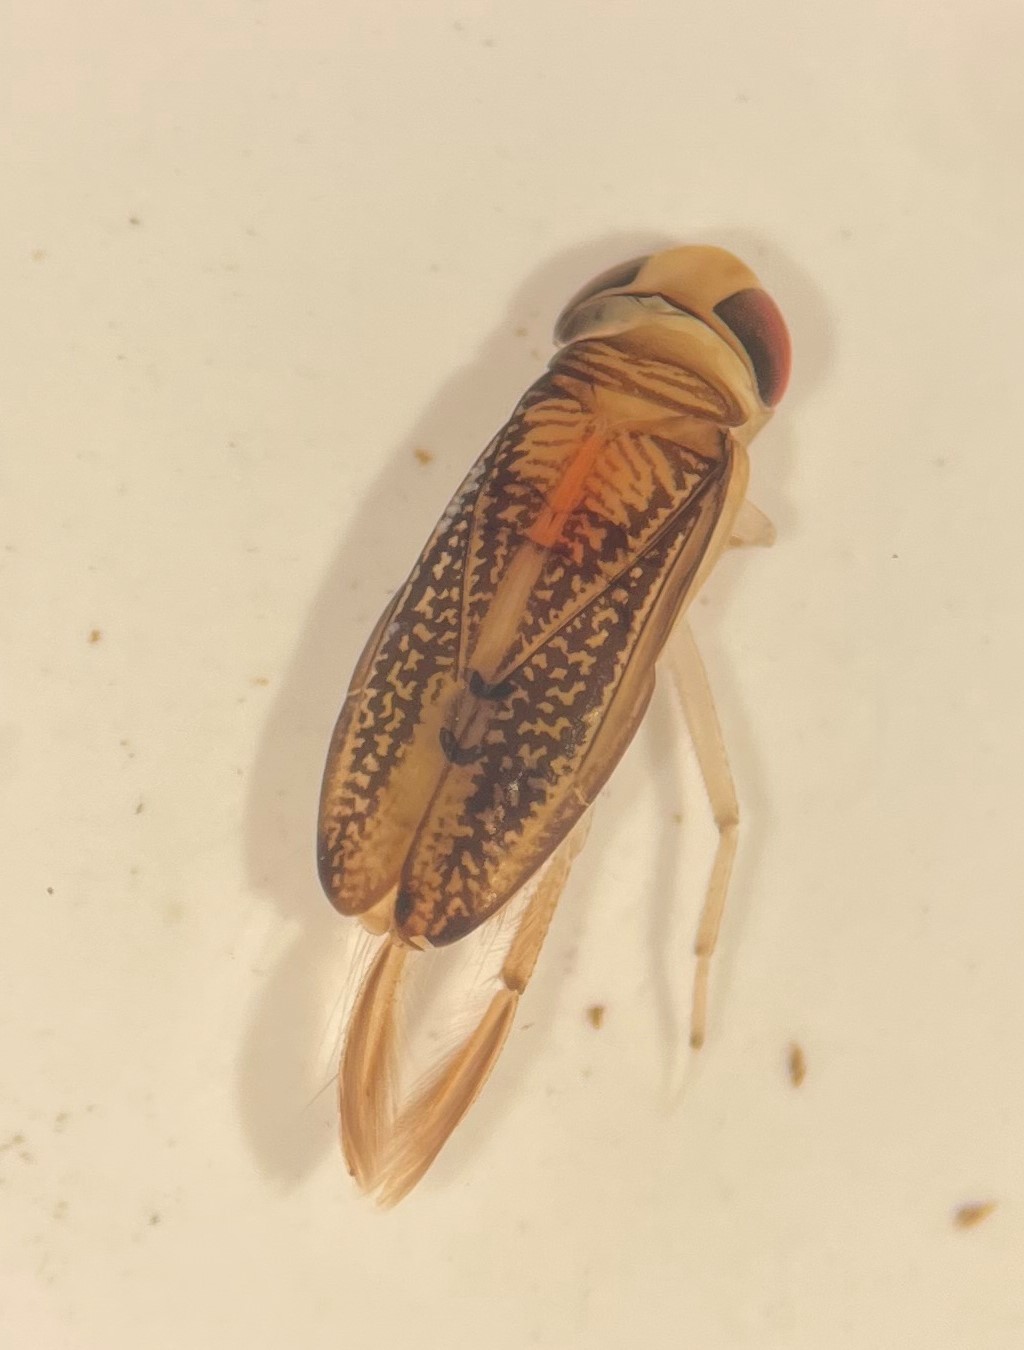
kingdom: Animalia
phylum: Arthropoda
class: Insecta
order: Hemiptera
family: Corixidae
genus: Trichocorixa
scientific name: Trichocorixa macroceps
